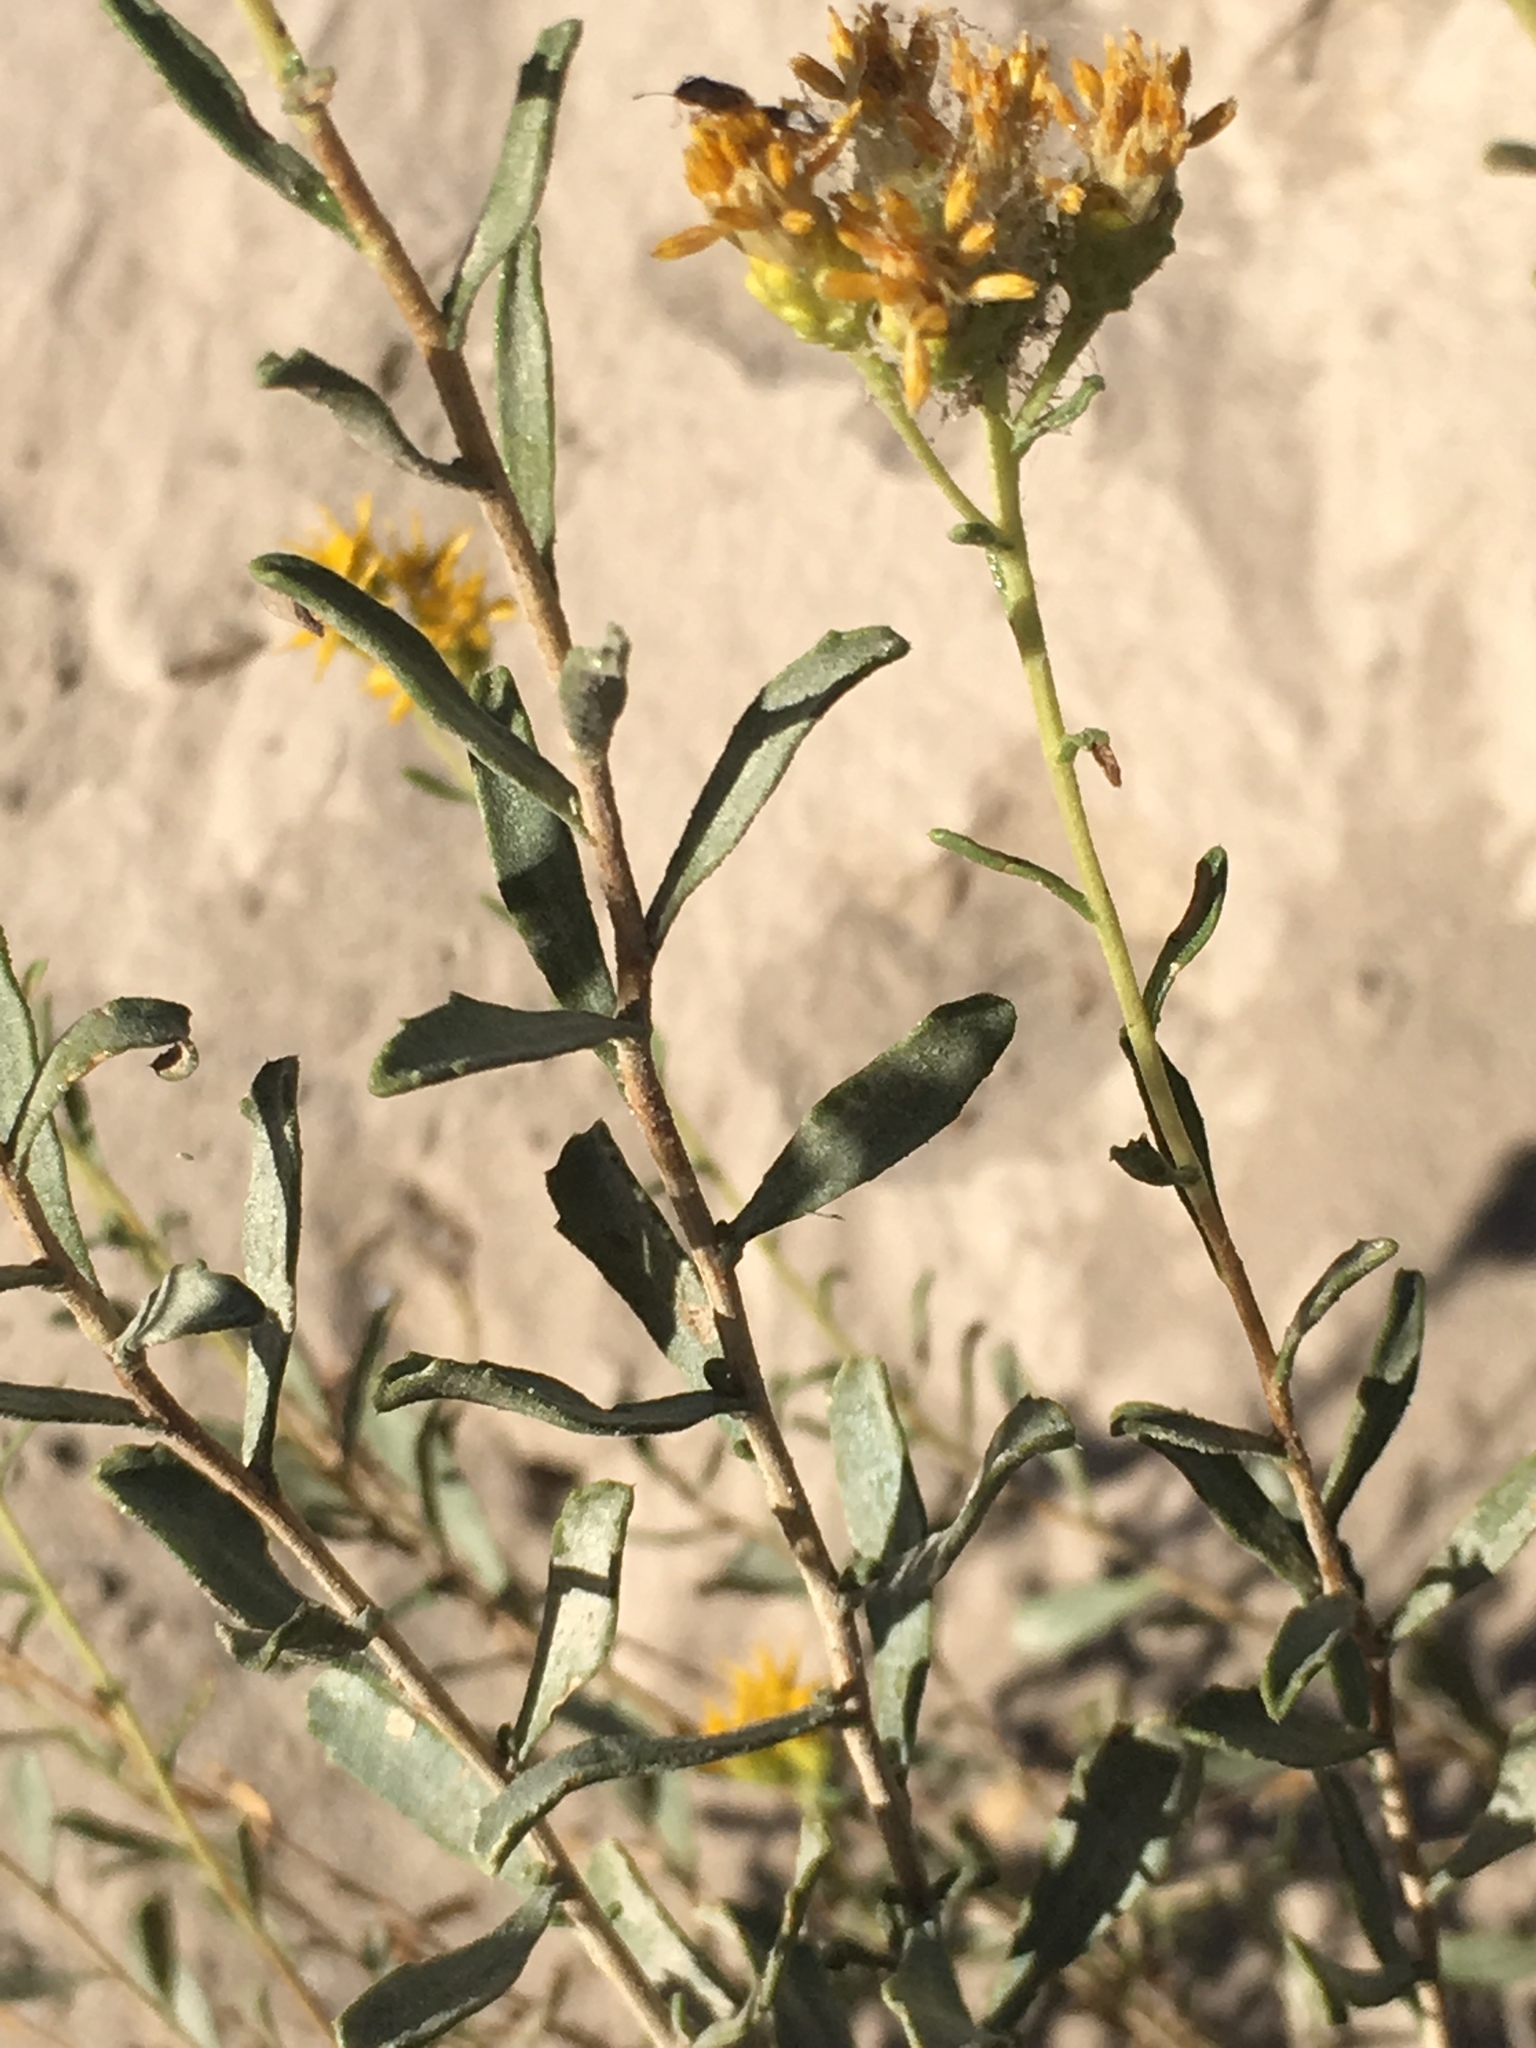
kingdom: Plantae
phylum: Tracheophyta
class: Magnoliopsida
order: Asterales
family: Asteraceae
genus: Isocoma
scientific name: Isocoma acradenia
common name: Alkali jimmyweed
